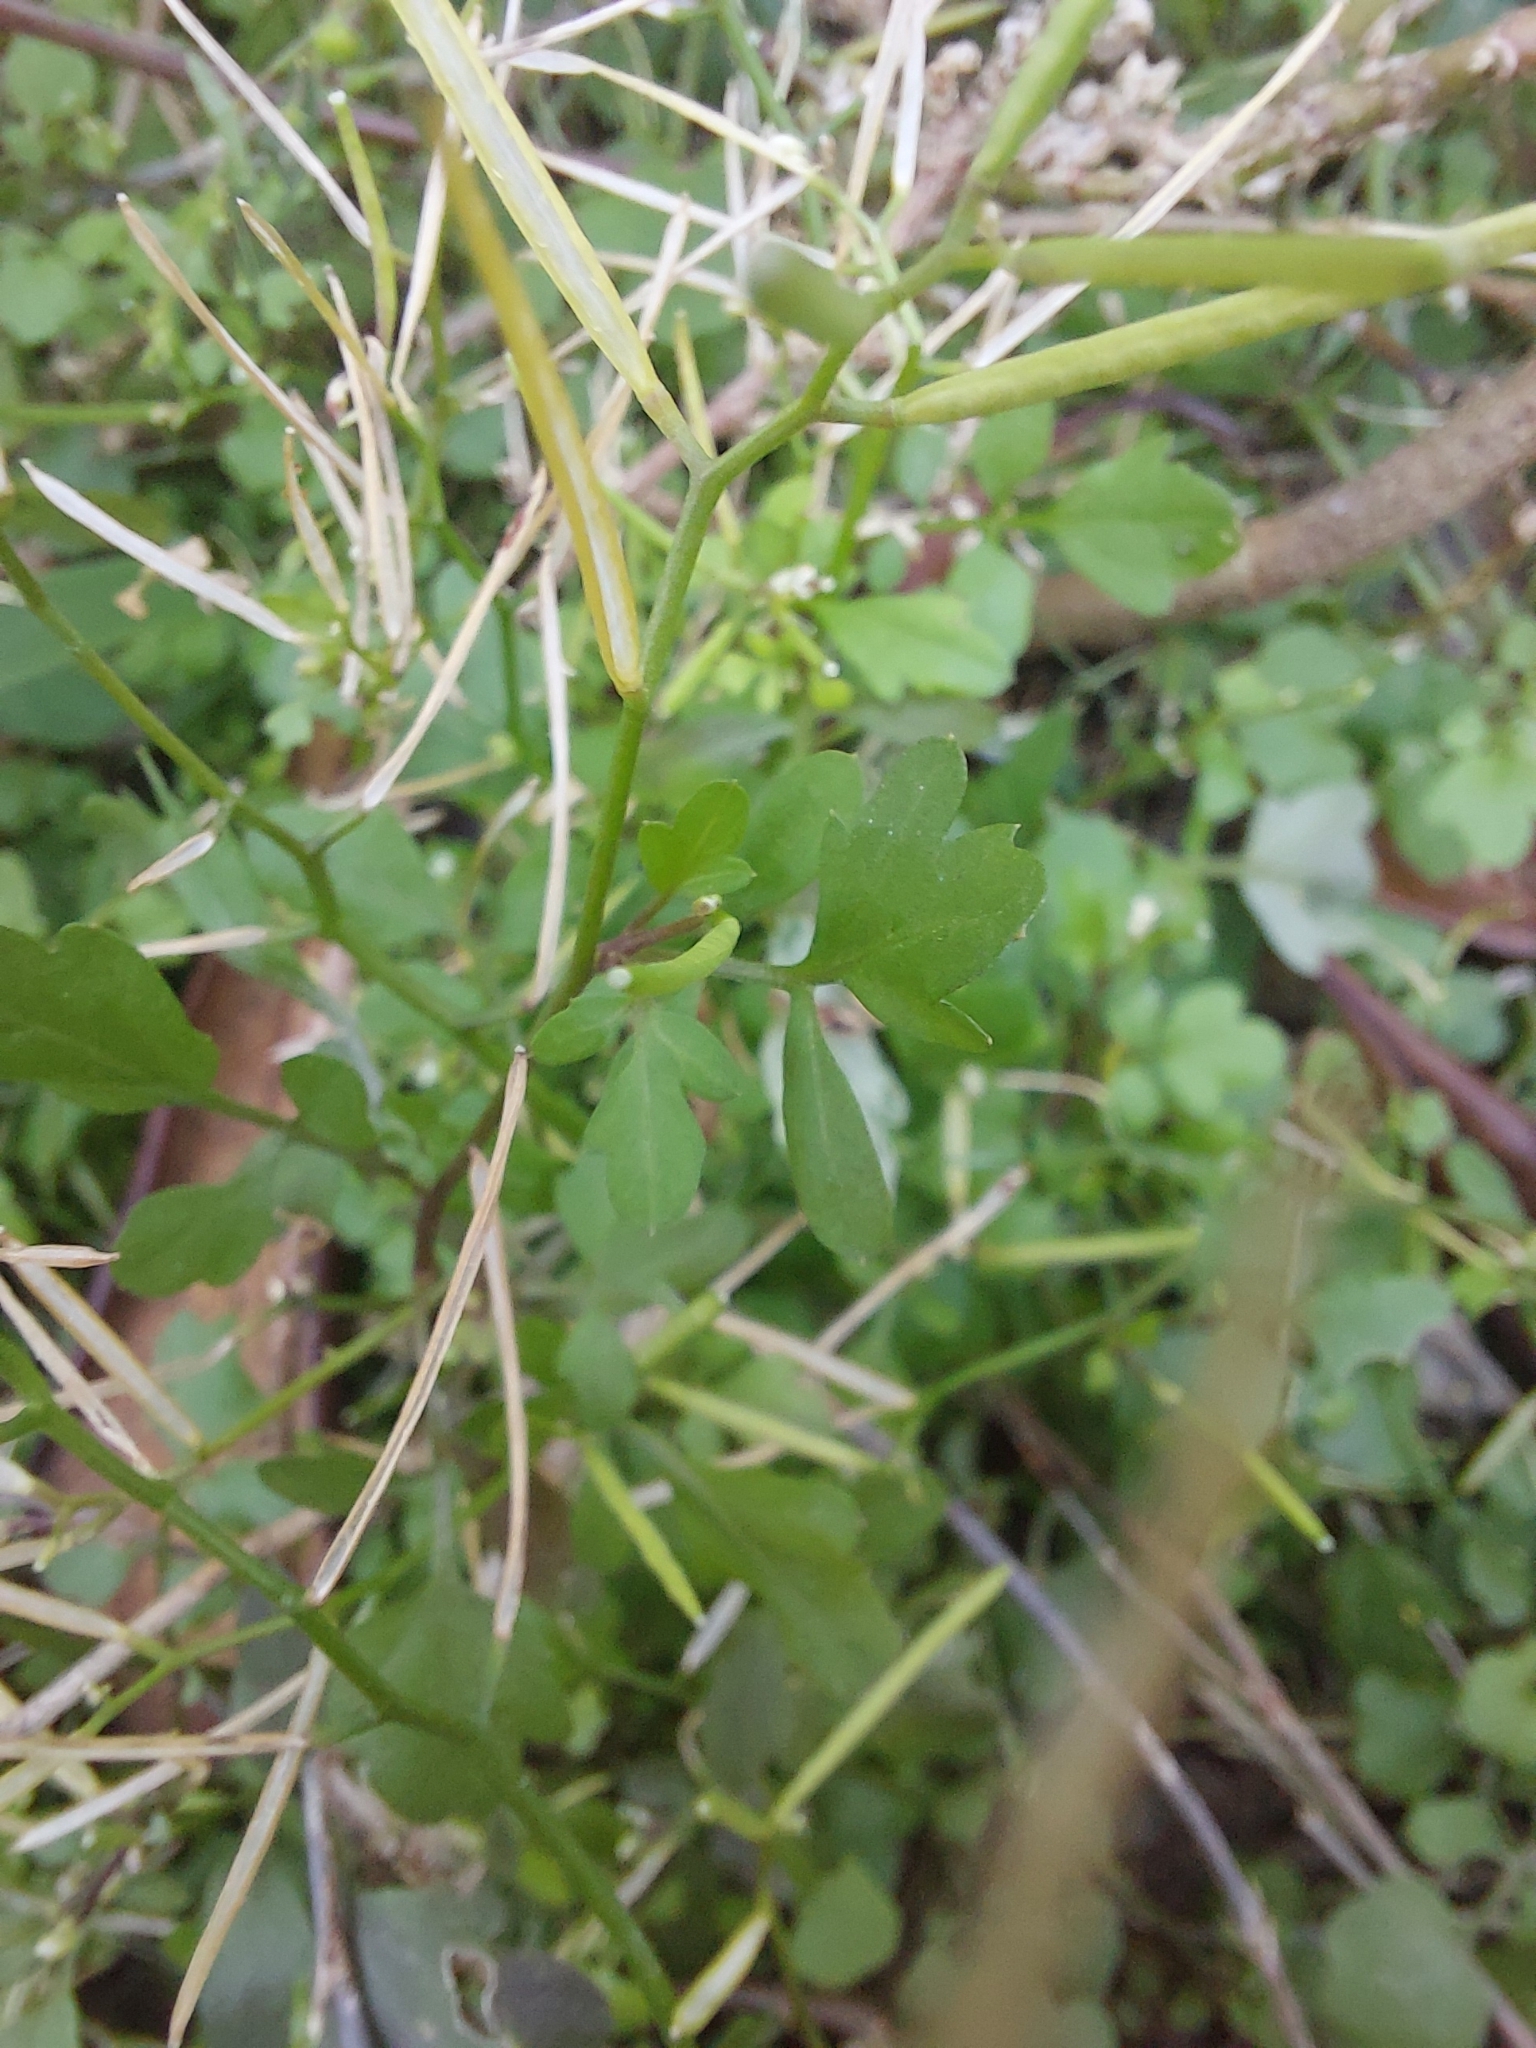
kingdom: Plantae
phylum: Tracheophyta
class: Magnoliopsida
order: Brassicales
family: Brassicaceae
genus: Cardamine
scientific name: Cardamine flexuosa
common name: Woodland bittercress
